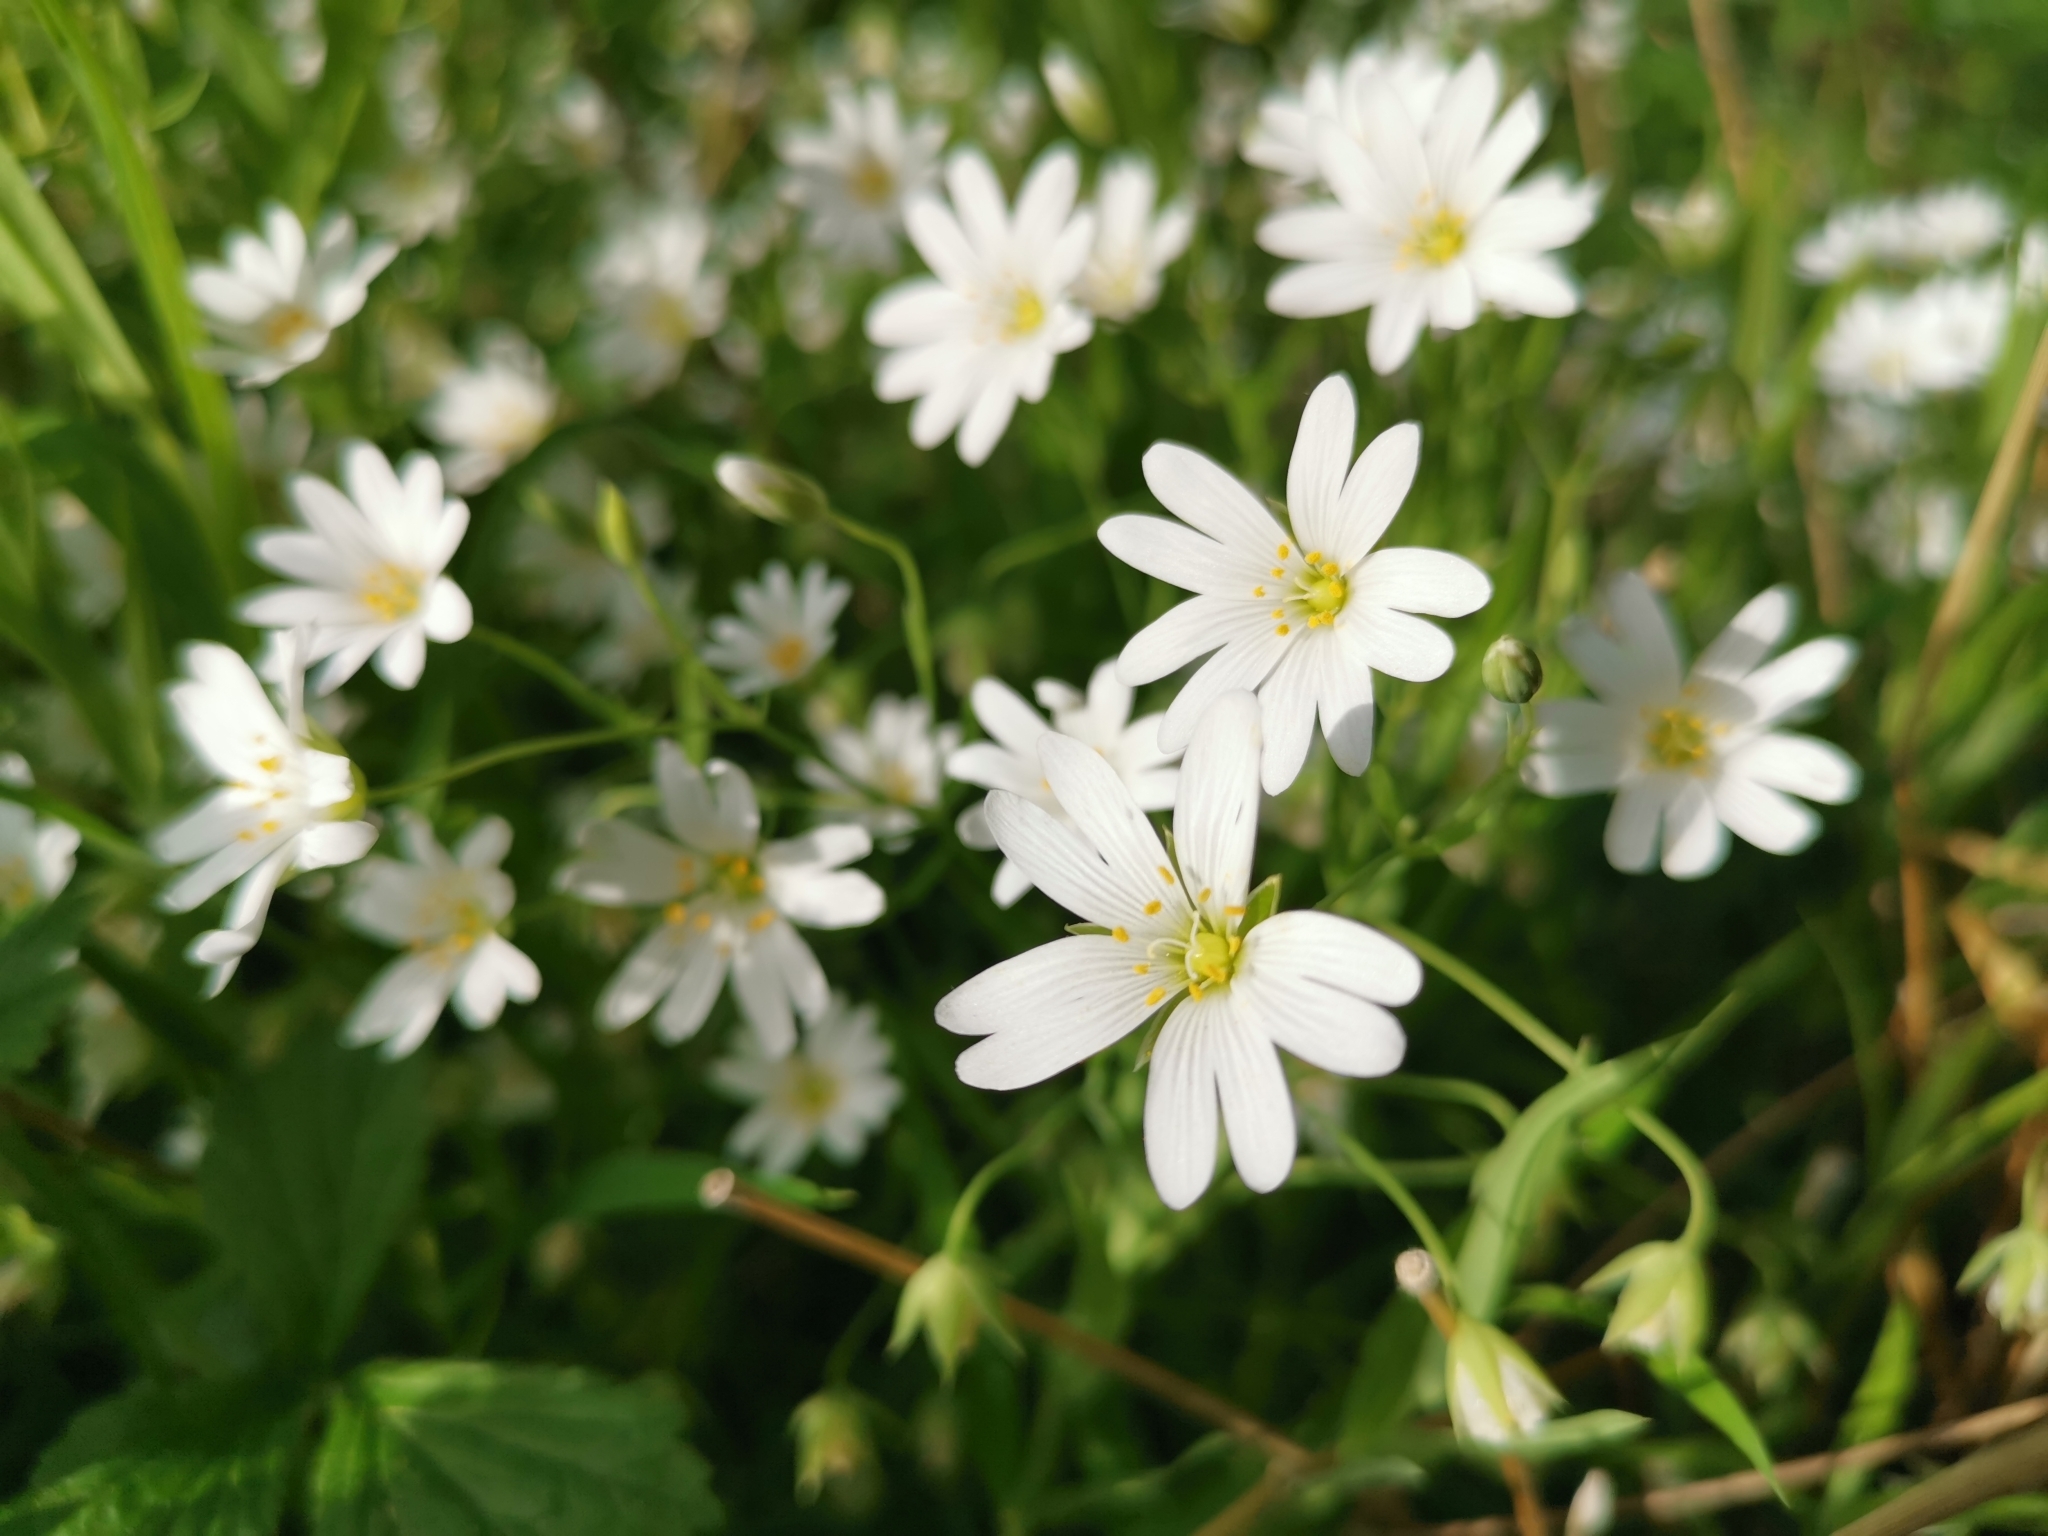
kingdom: Plantae
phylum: Tracheophyta
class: Magnoliopsida
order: Caryophyllales
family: Caryophyllaceae
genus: Rabelera
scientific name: Rabelera holostea
